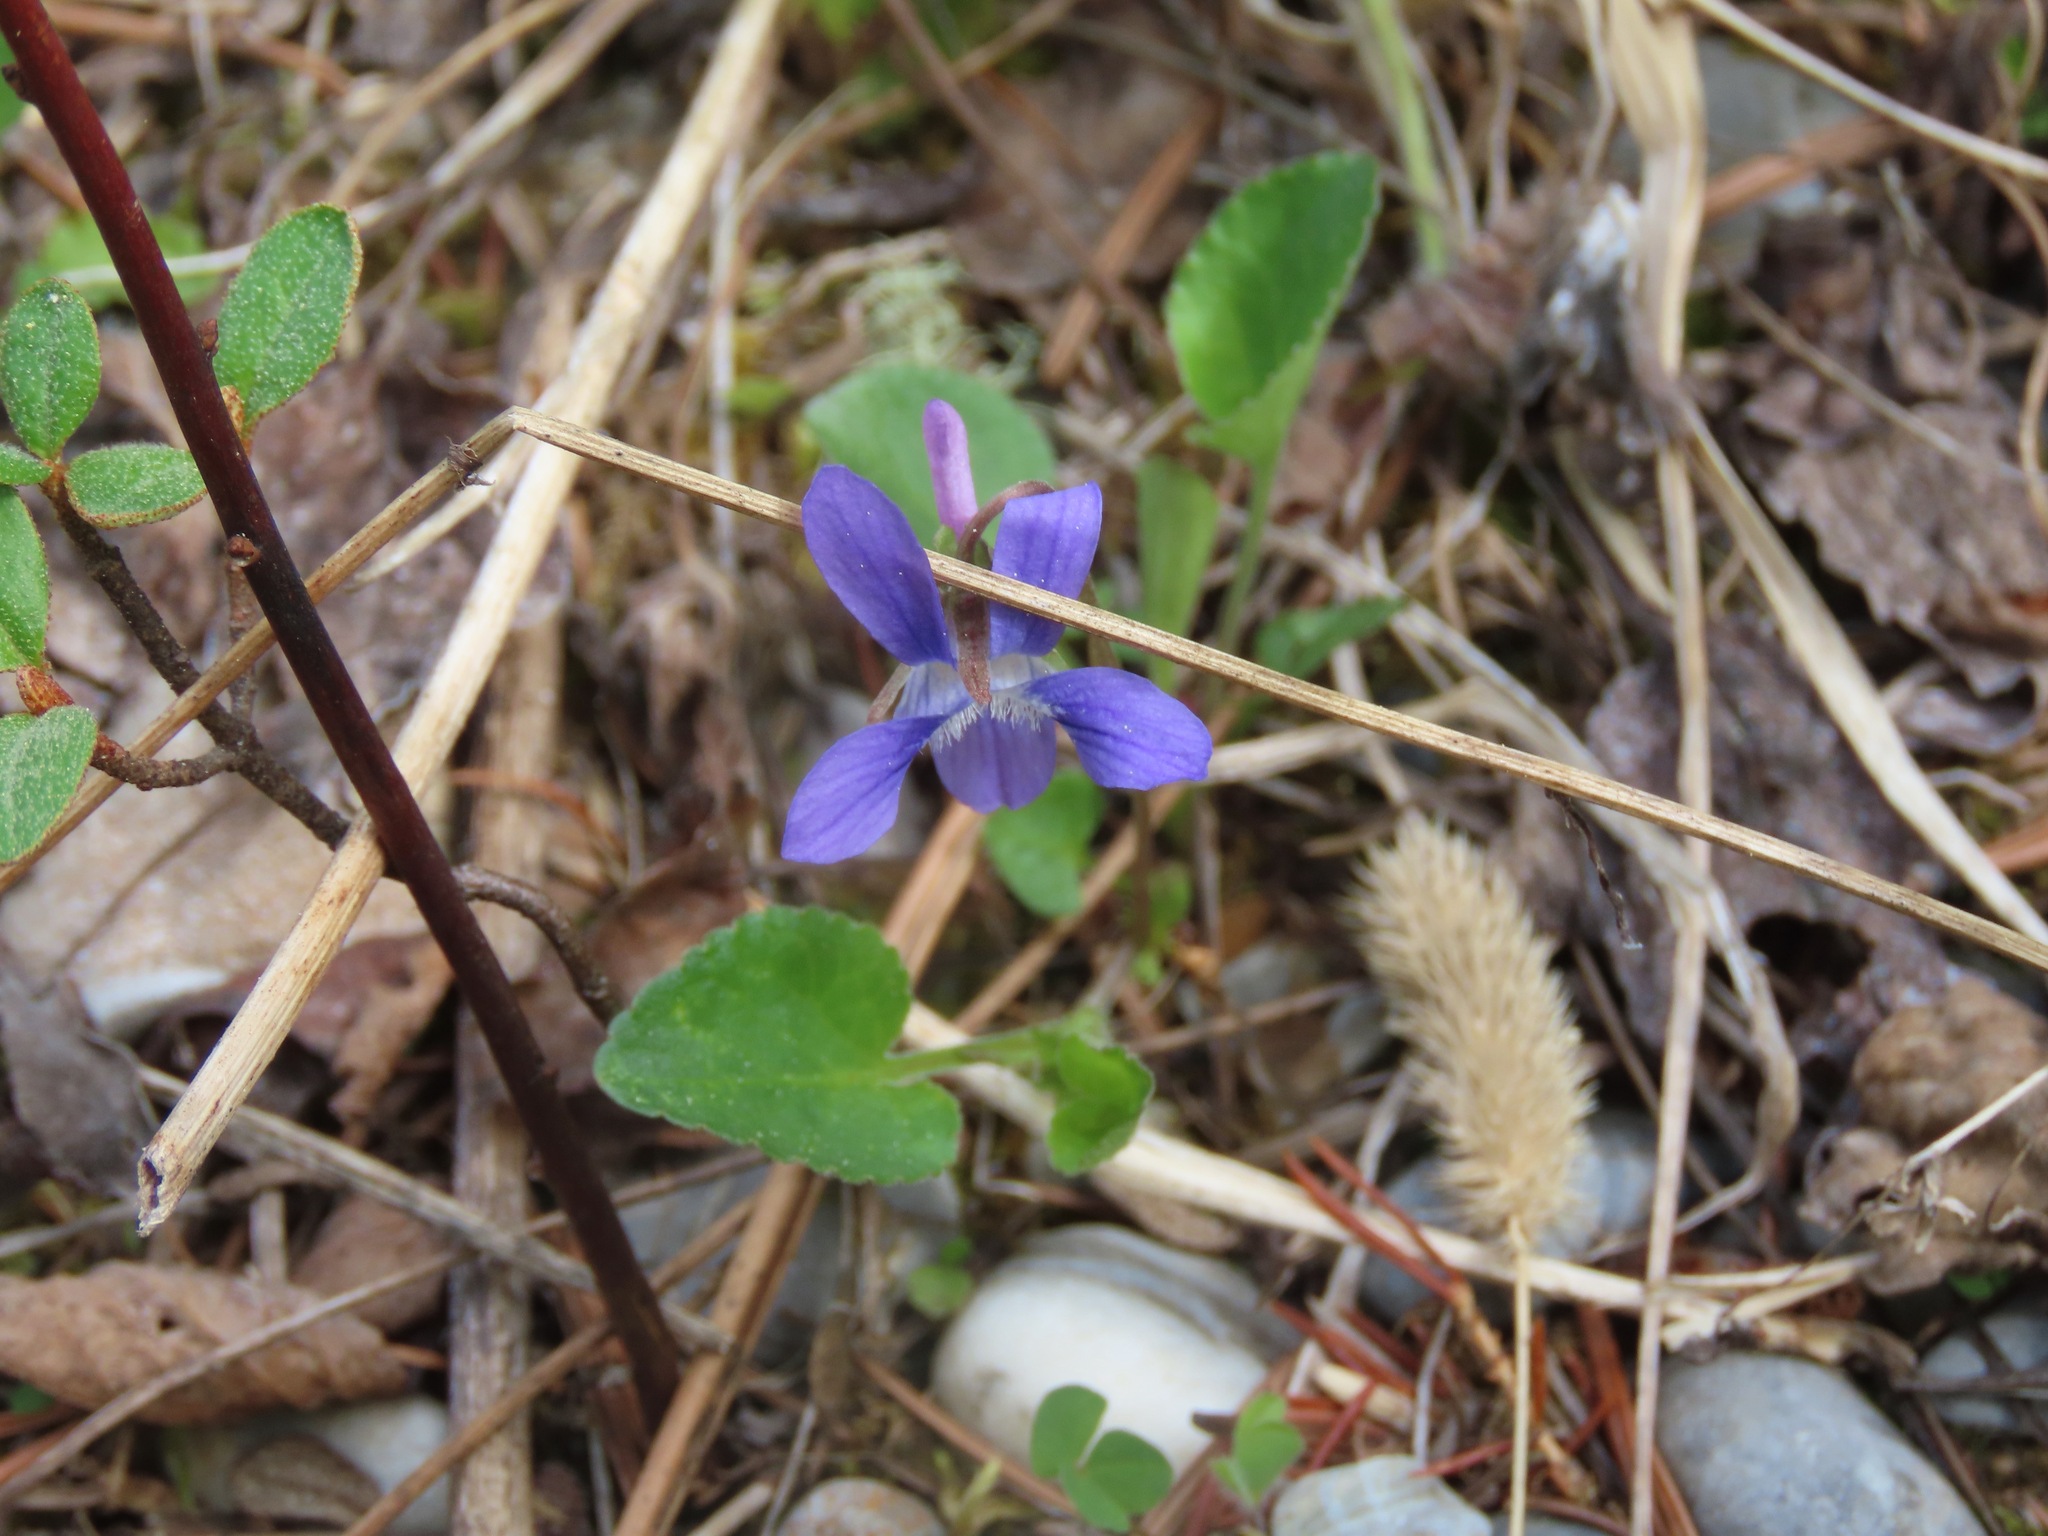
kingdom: Plantae
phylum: Tracheophyta
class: Magnoliopsida
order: Malpighiales
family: Violaceae
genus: Viola
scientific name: Viola adunca
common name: Sand violet
